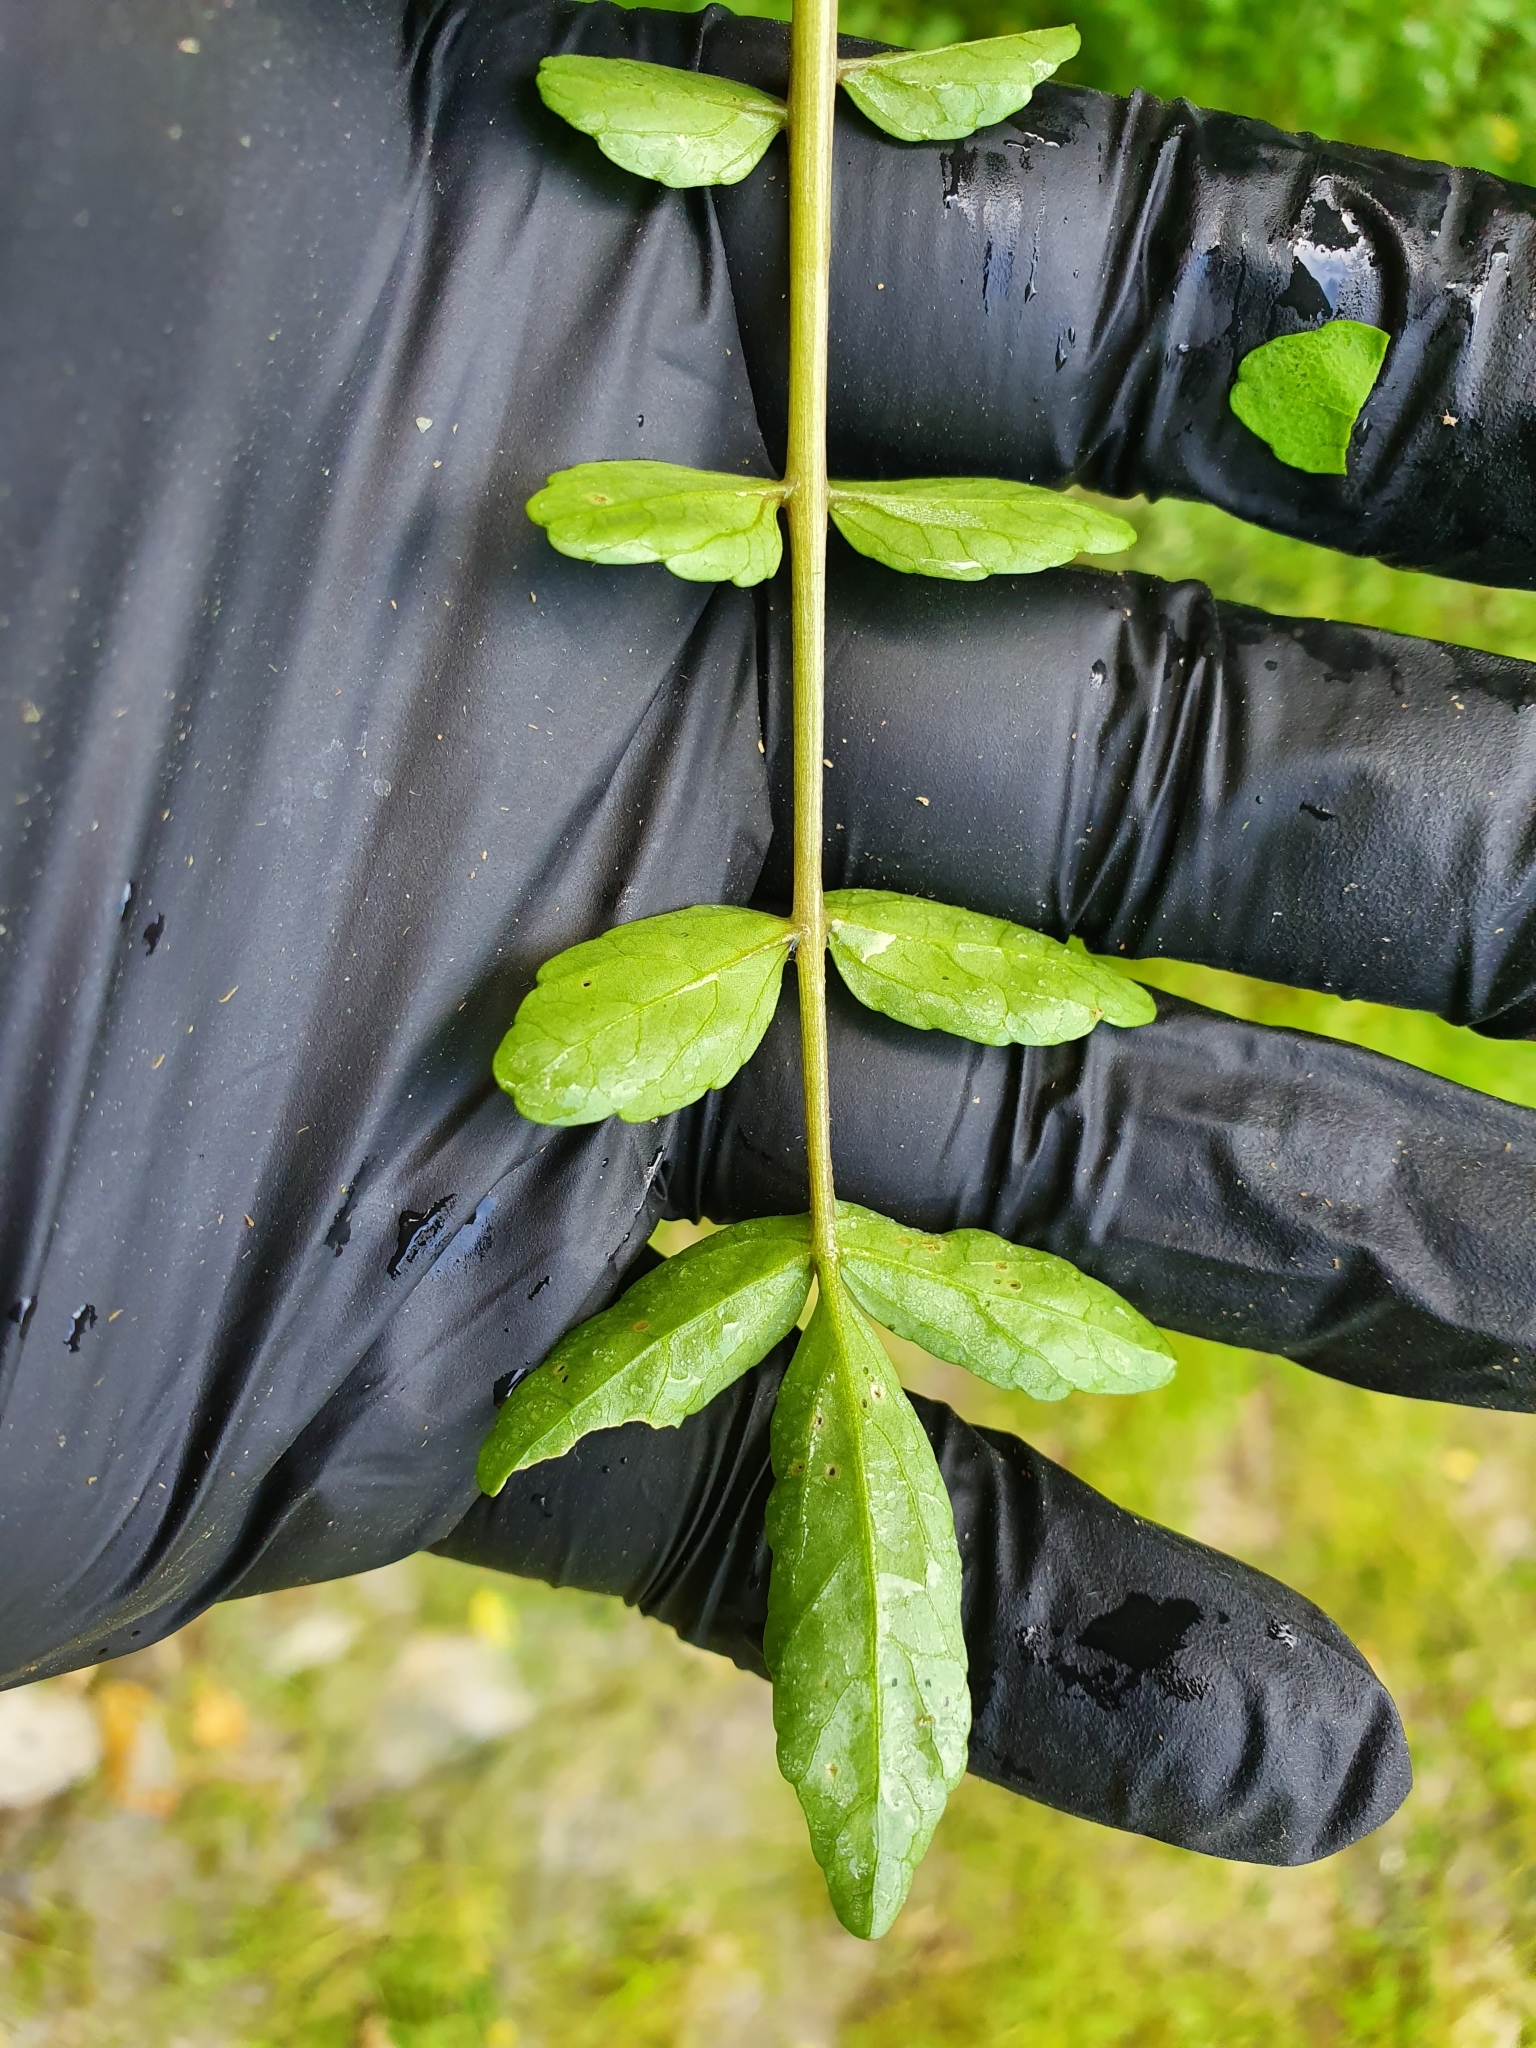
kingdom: Plantae
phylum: Tracheophyta
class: Magnoliopsida
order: Brassicales
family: Brassicaceae
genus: Nasturtium
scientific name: Nasturtium officinale
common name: Watercress
